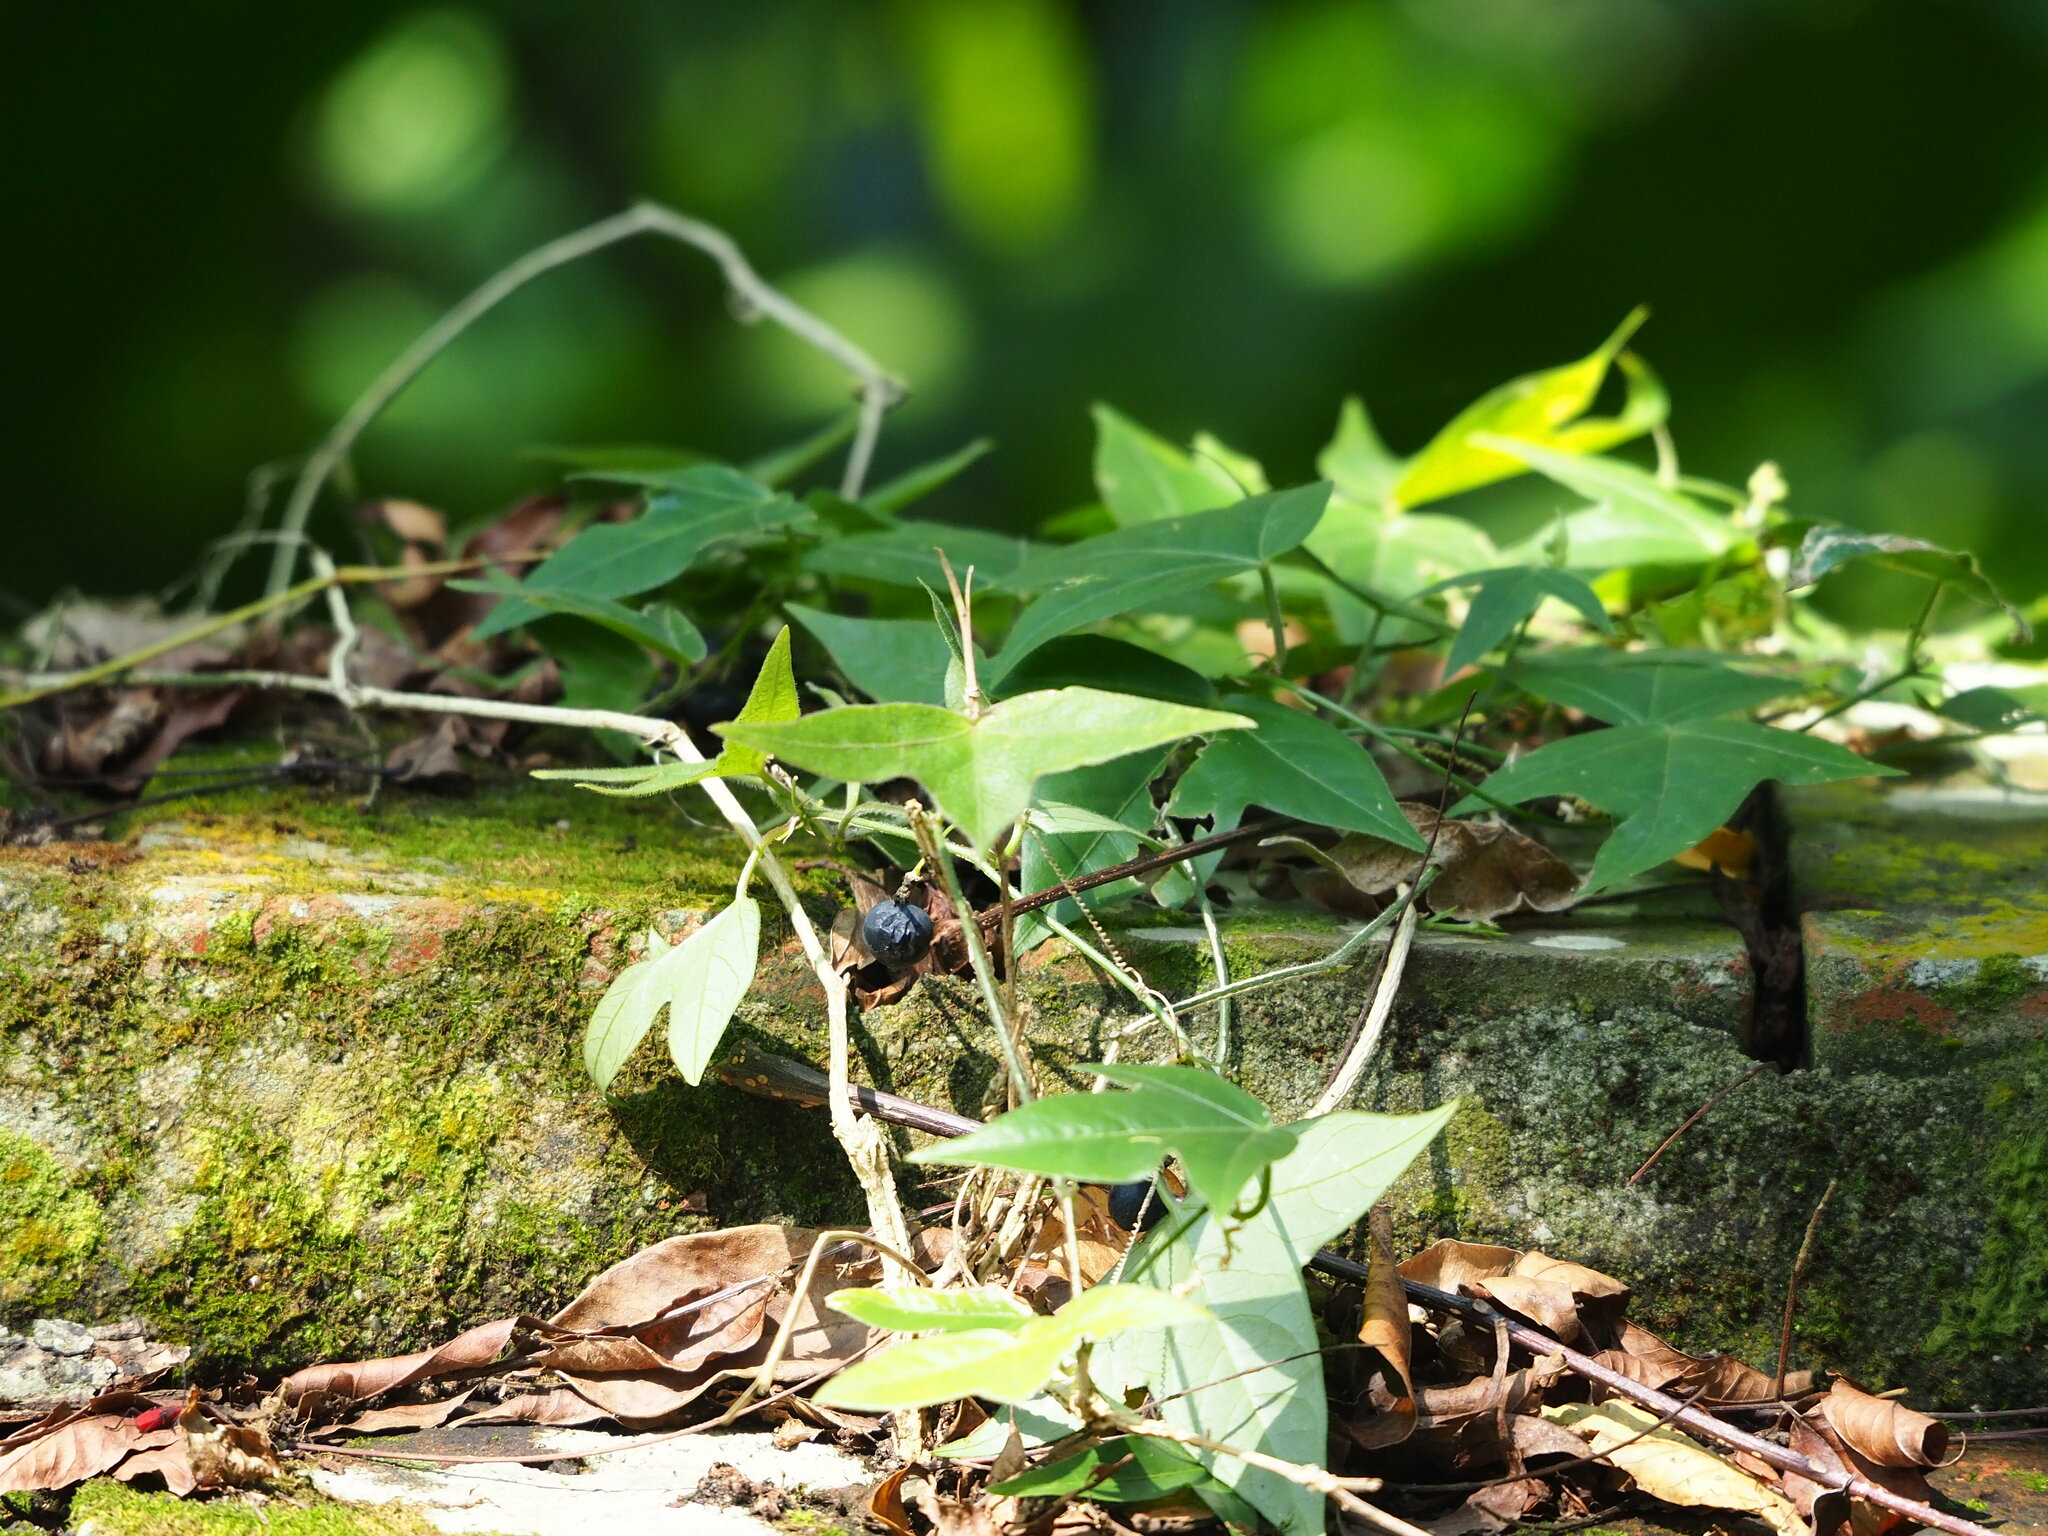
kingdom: Plantae
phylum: Tracheophyta
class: Magnoliopsida
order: Malpighiales
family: Passifloraceae
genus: Passiflora
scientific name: Passiflora suberosa
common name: Wild passionfruit
